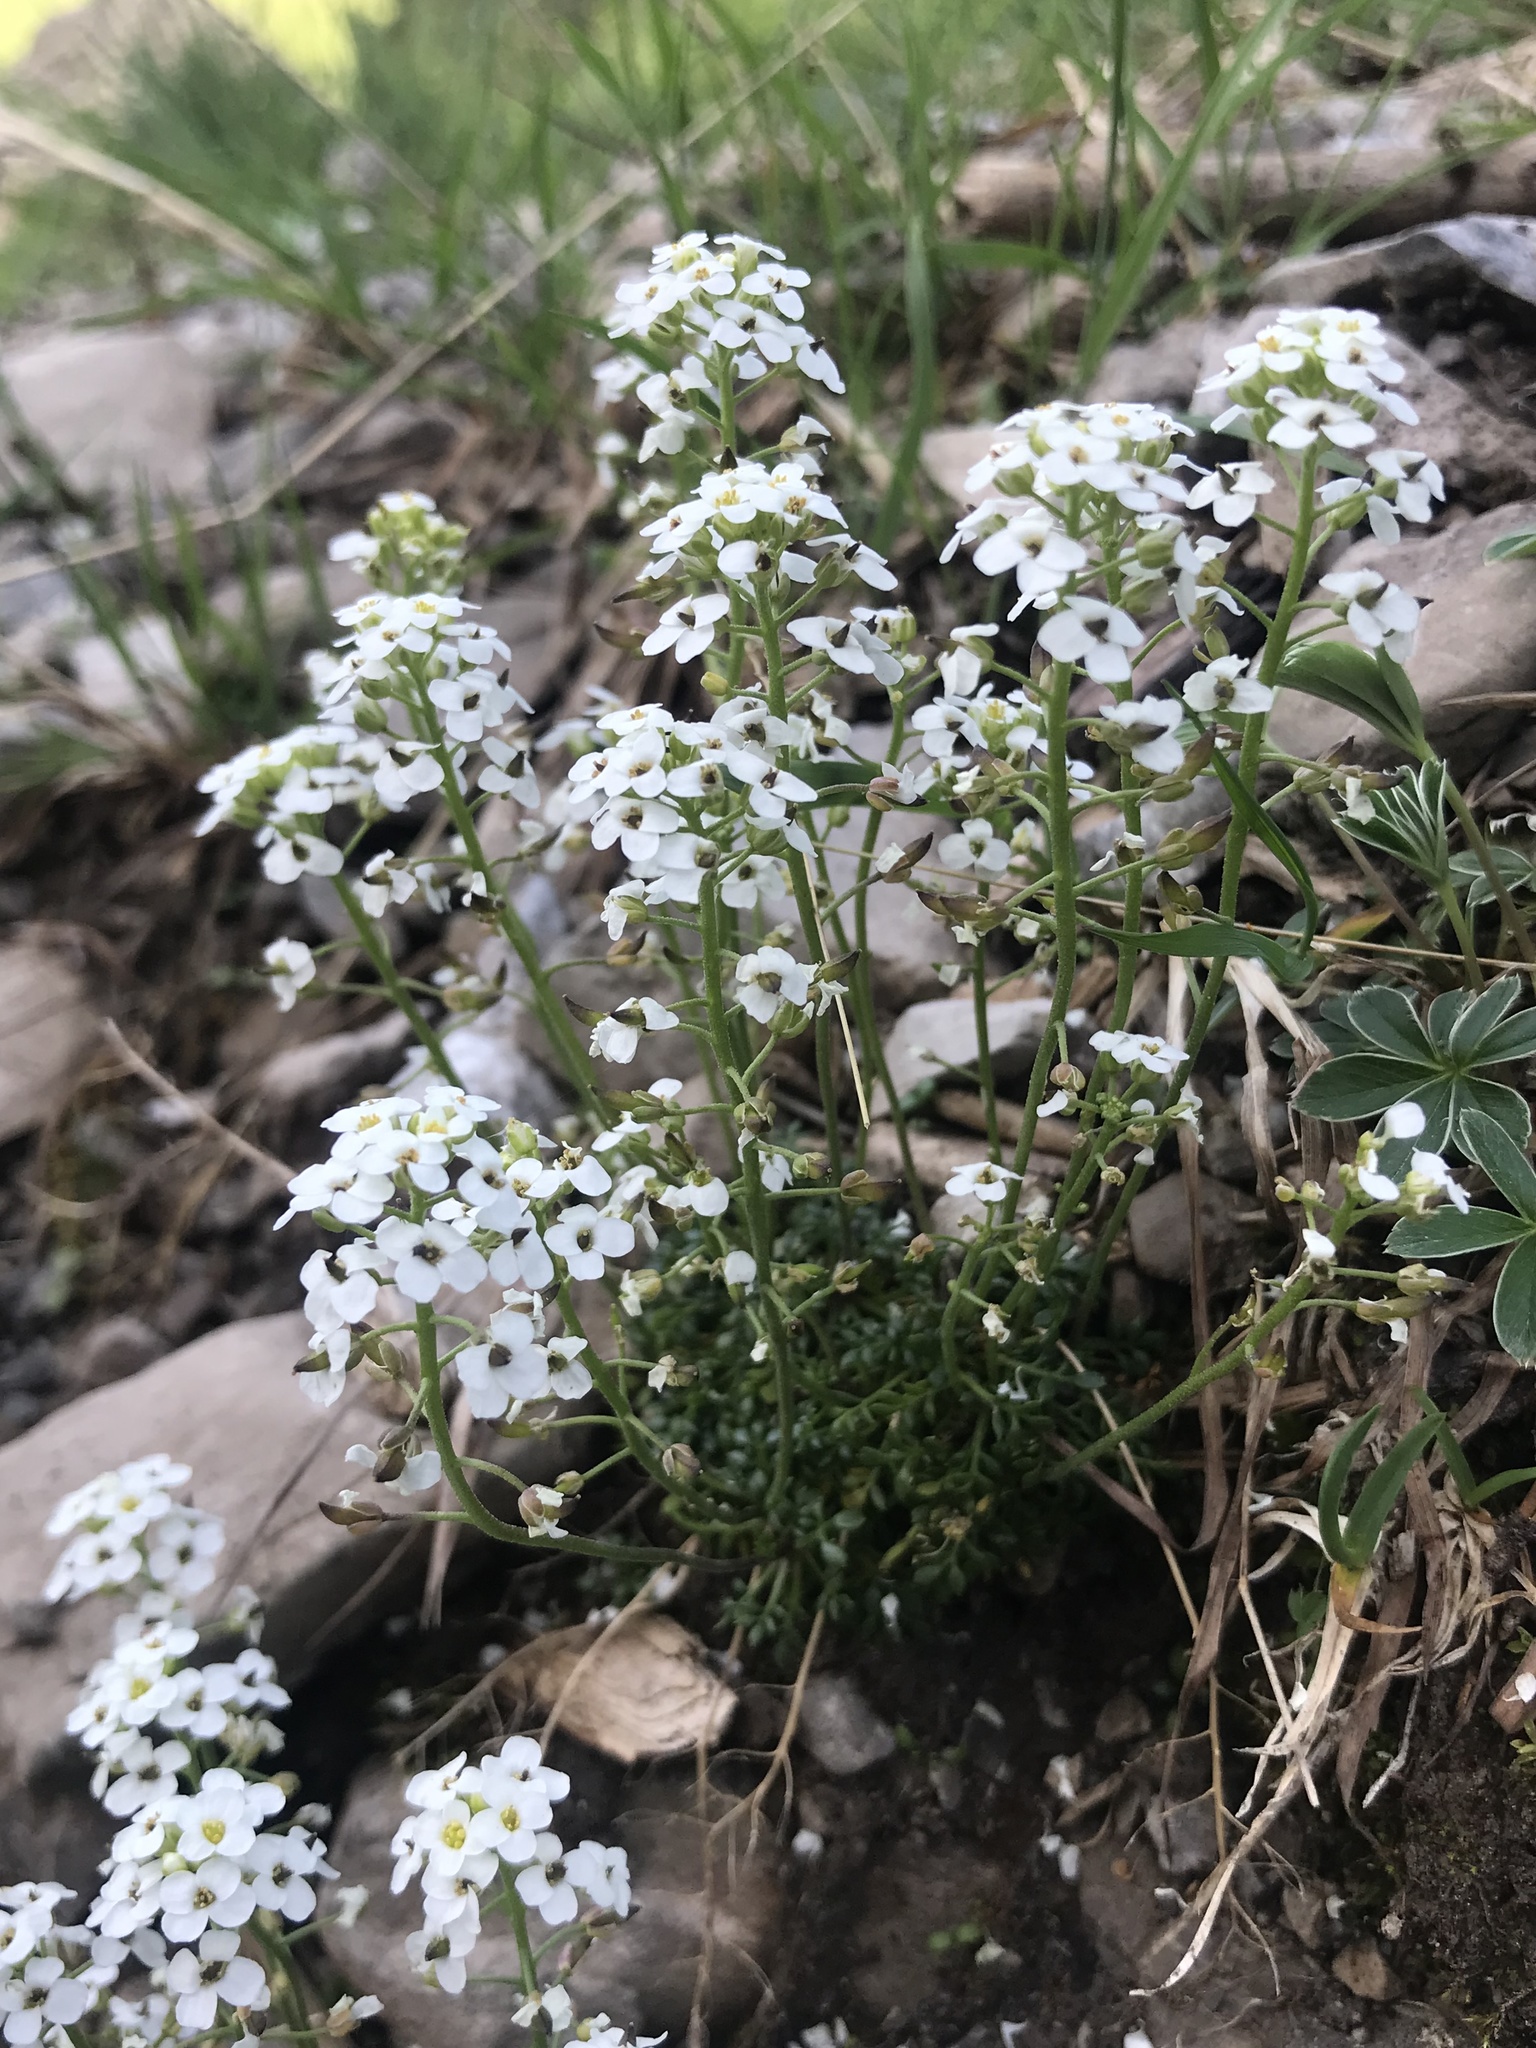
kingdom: Plantae
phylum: Tracheophyta
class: Magnoliopsida
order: Brassicales
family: Brassicaceae
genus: Hornungia
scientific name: Hornungia alpina
